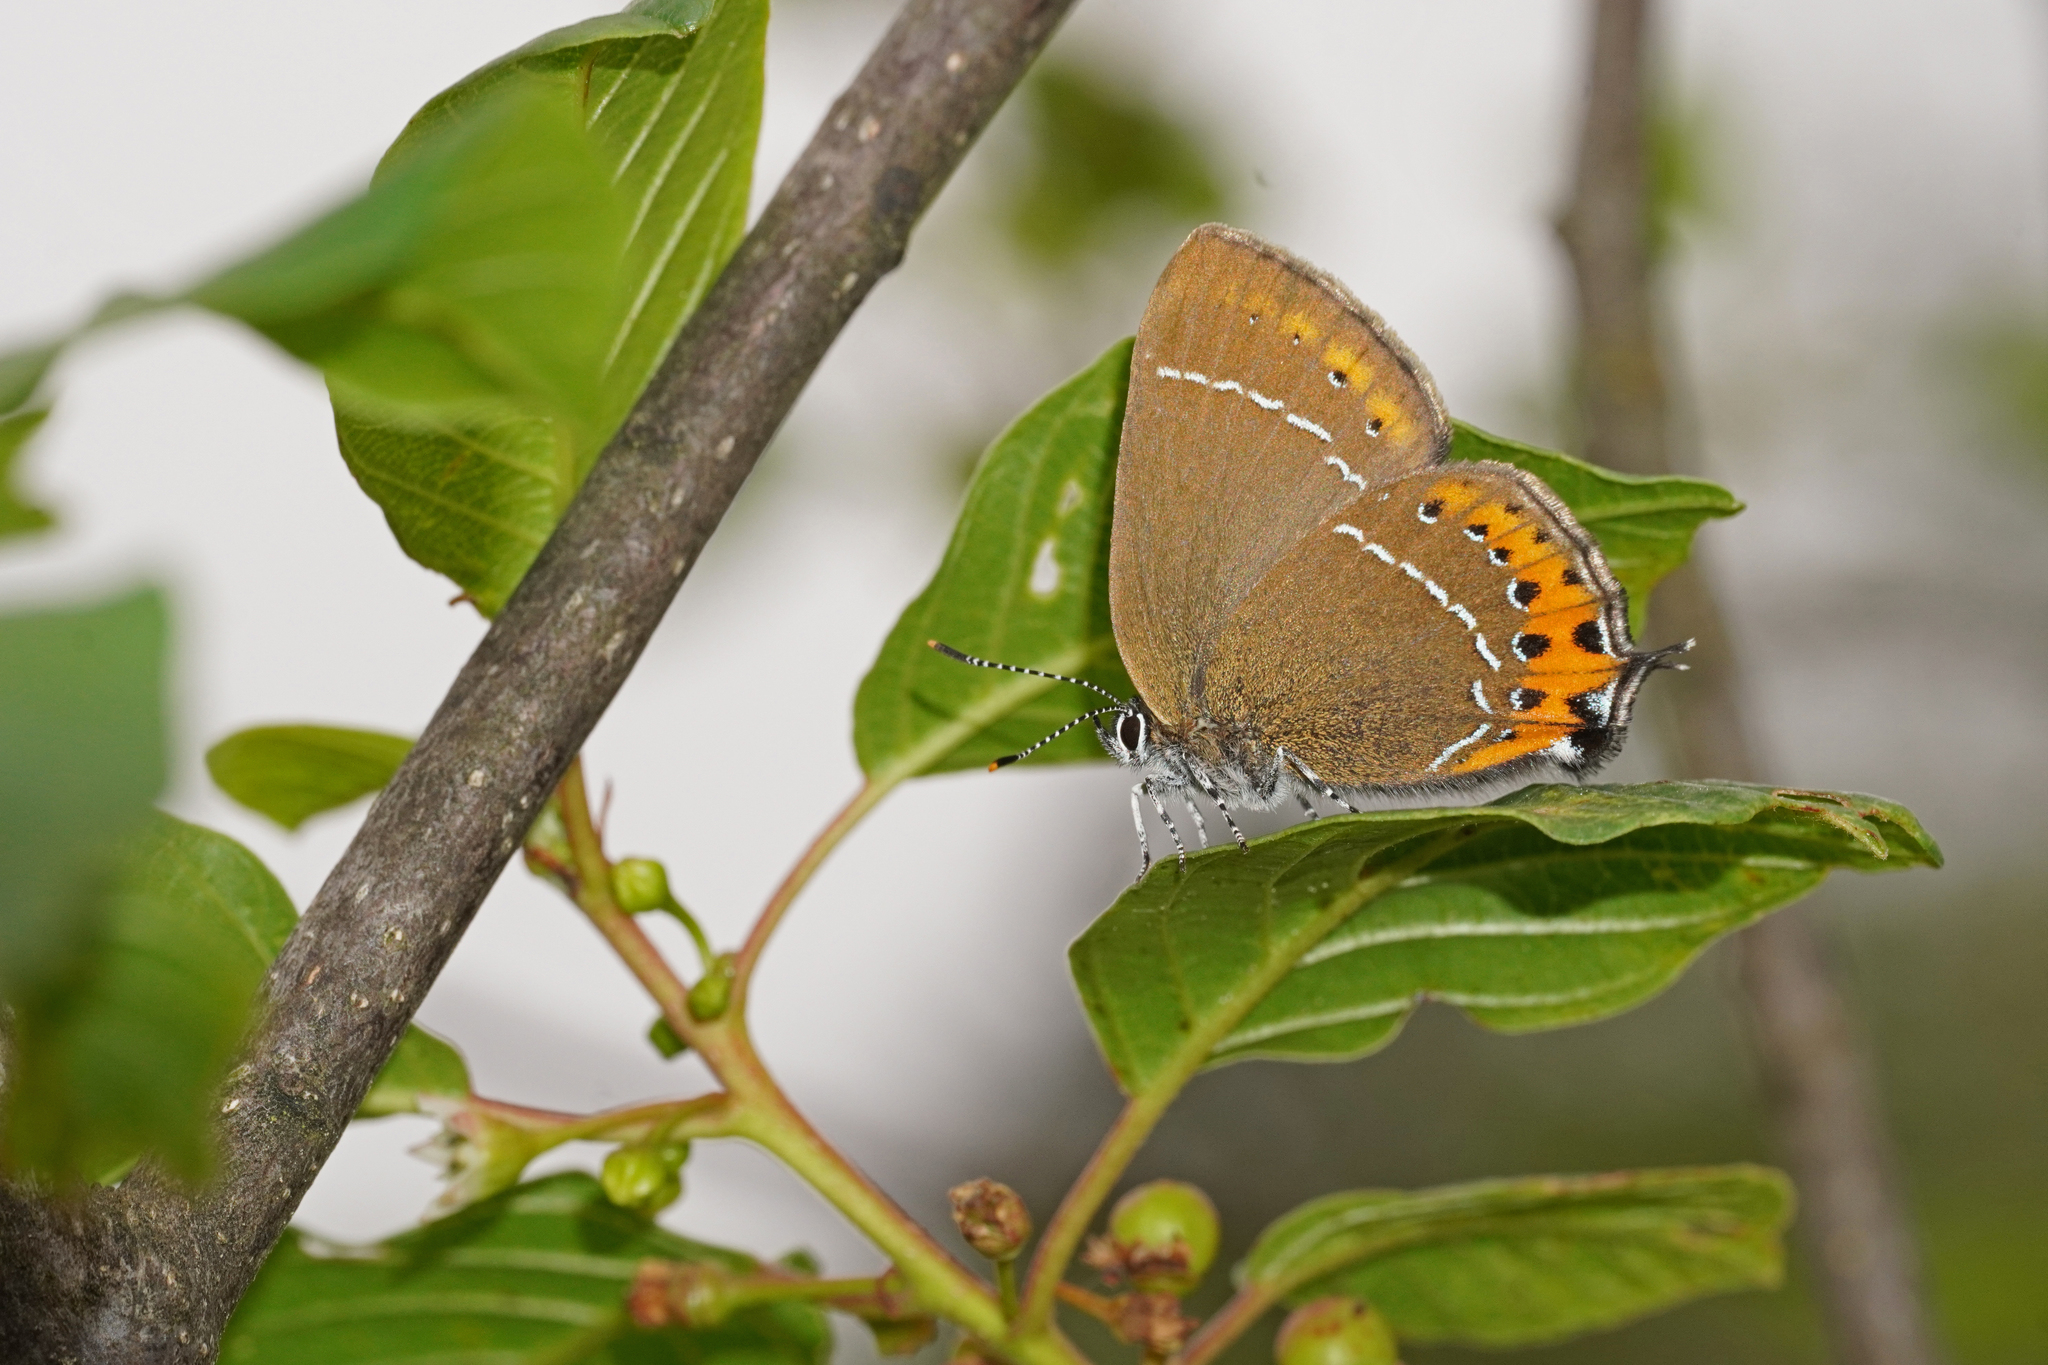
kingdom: Animalia
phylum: Arthropoda
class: Insecta
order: Lepidoptera
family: Lycaenidae
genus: Fixsenia
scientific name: Fixsenia pruni
